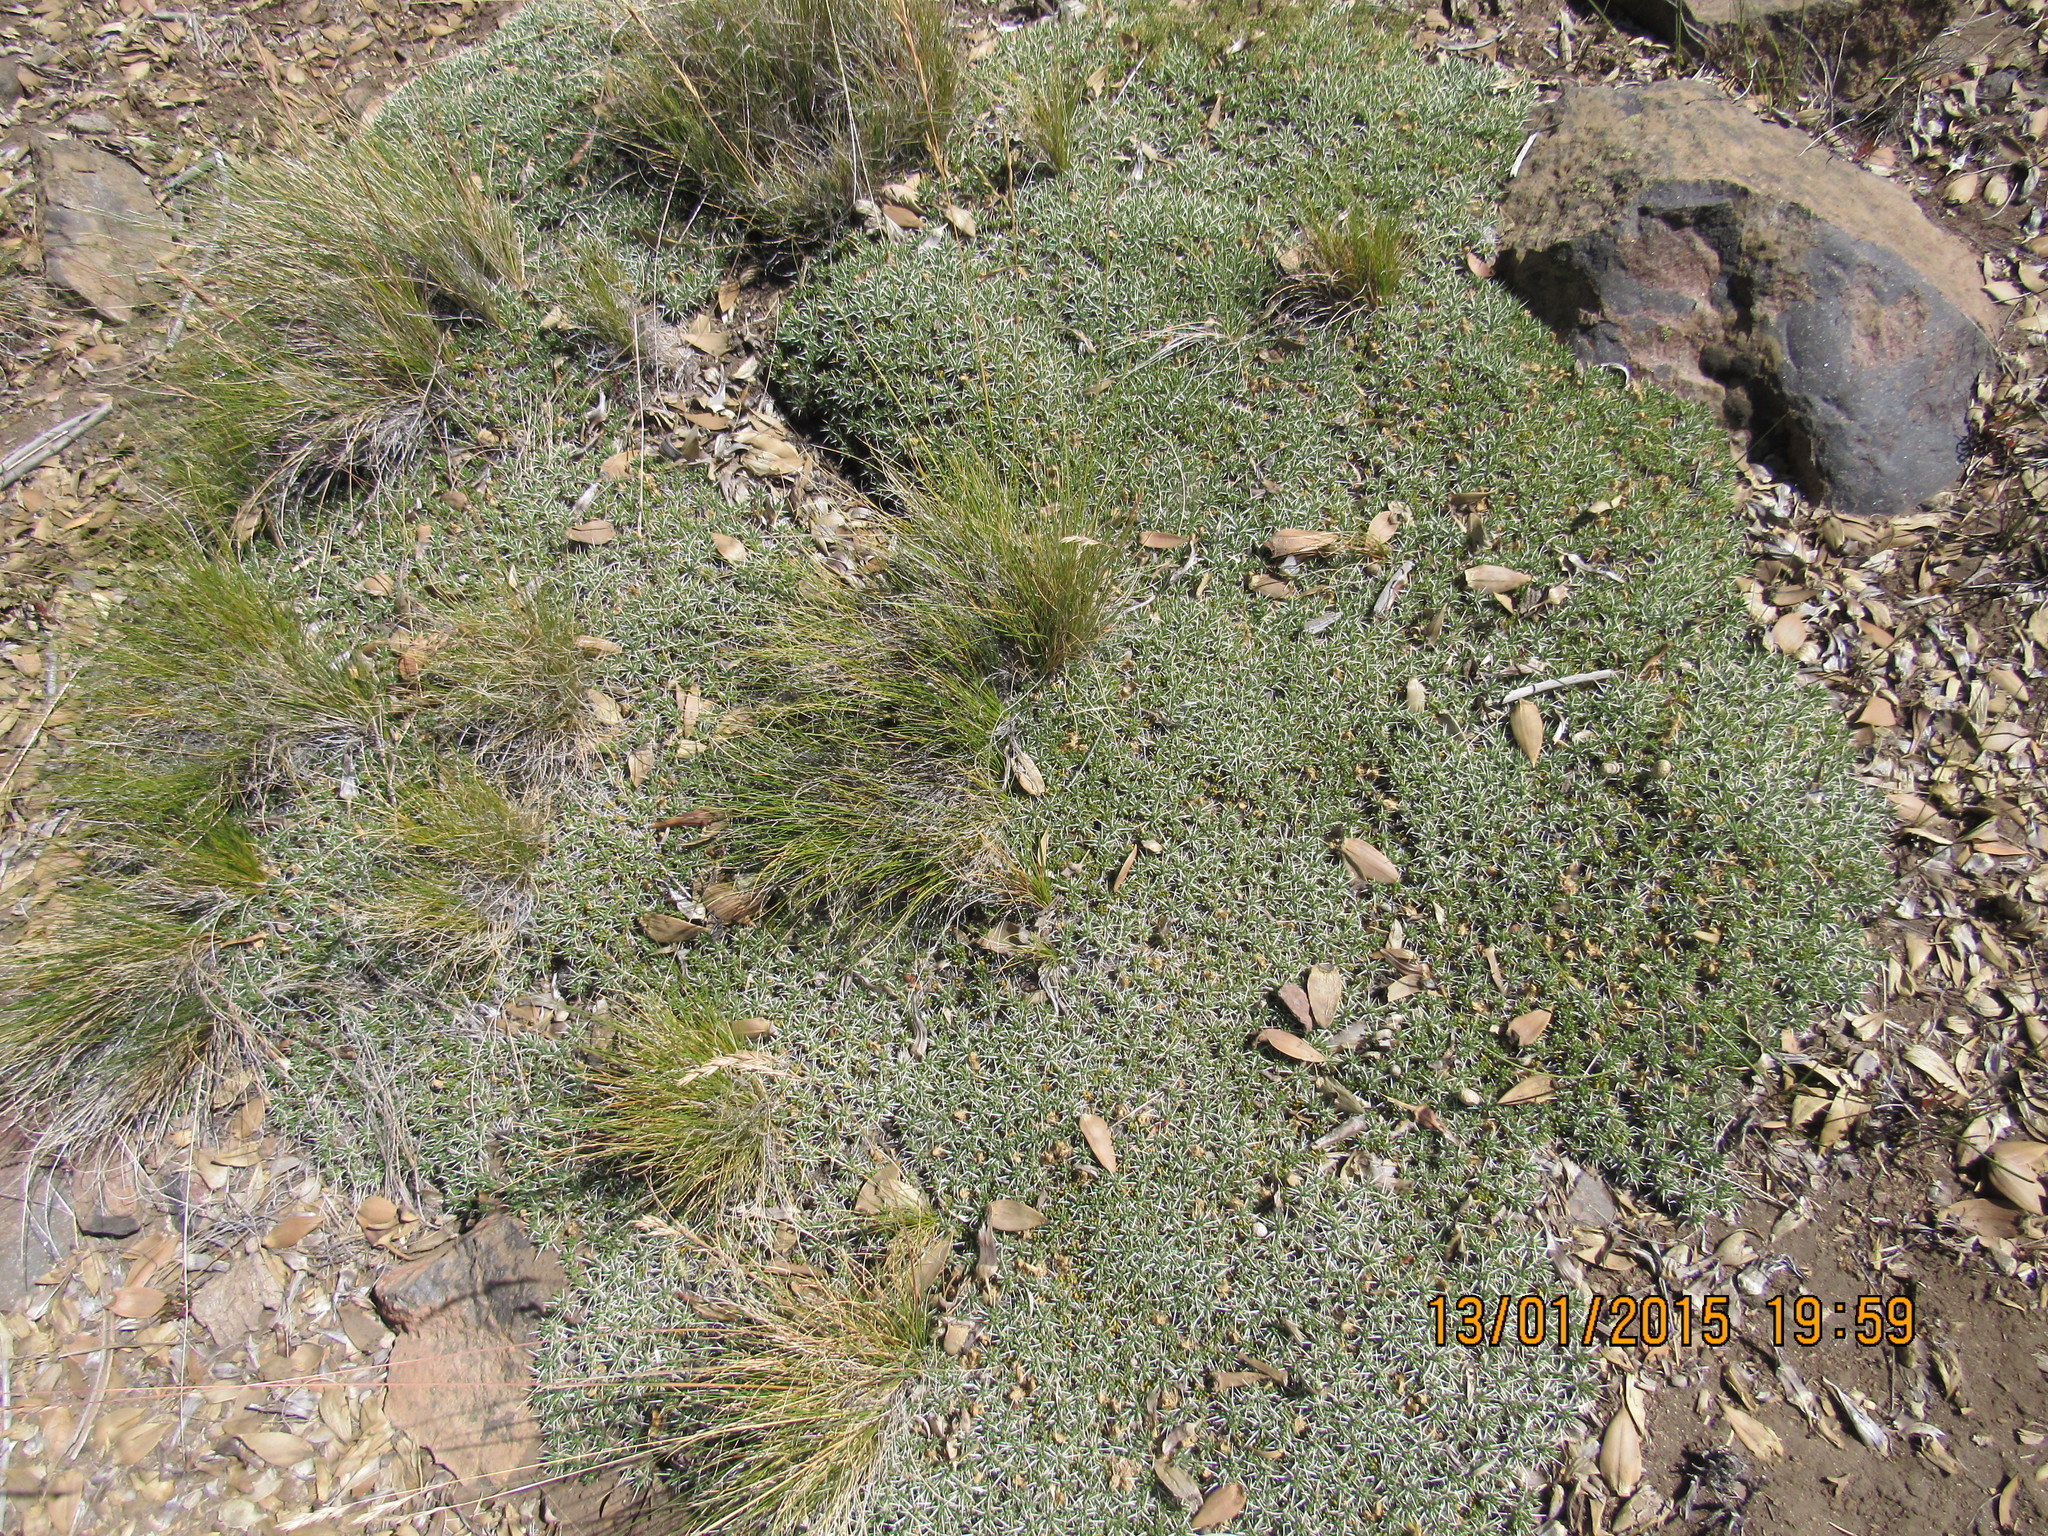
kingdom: Plantae
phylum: Tracheophyta
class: Liliopsida
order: Poales
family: Cyperaceae
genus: Carex
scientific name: Carex andina
